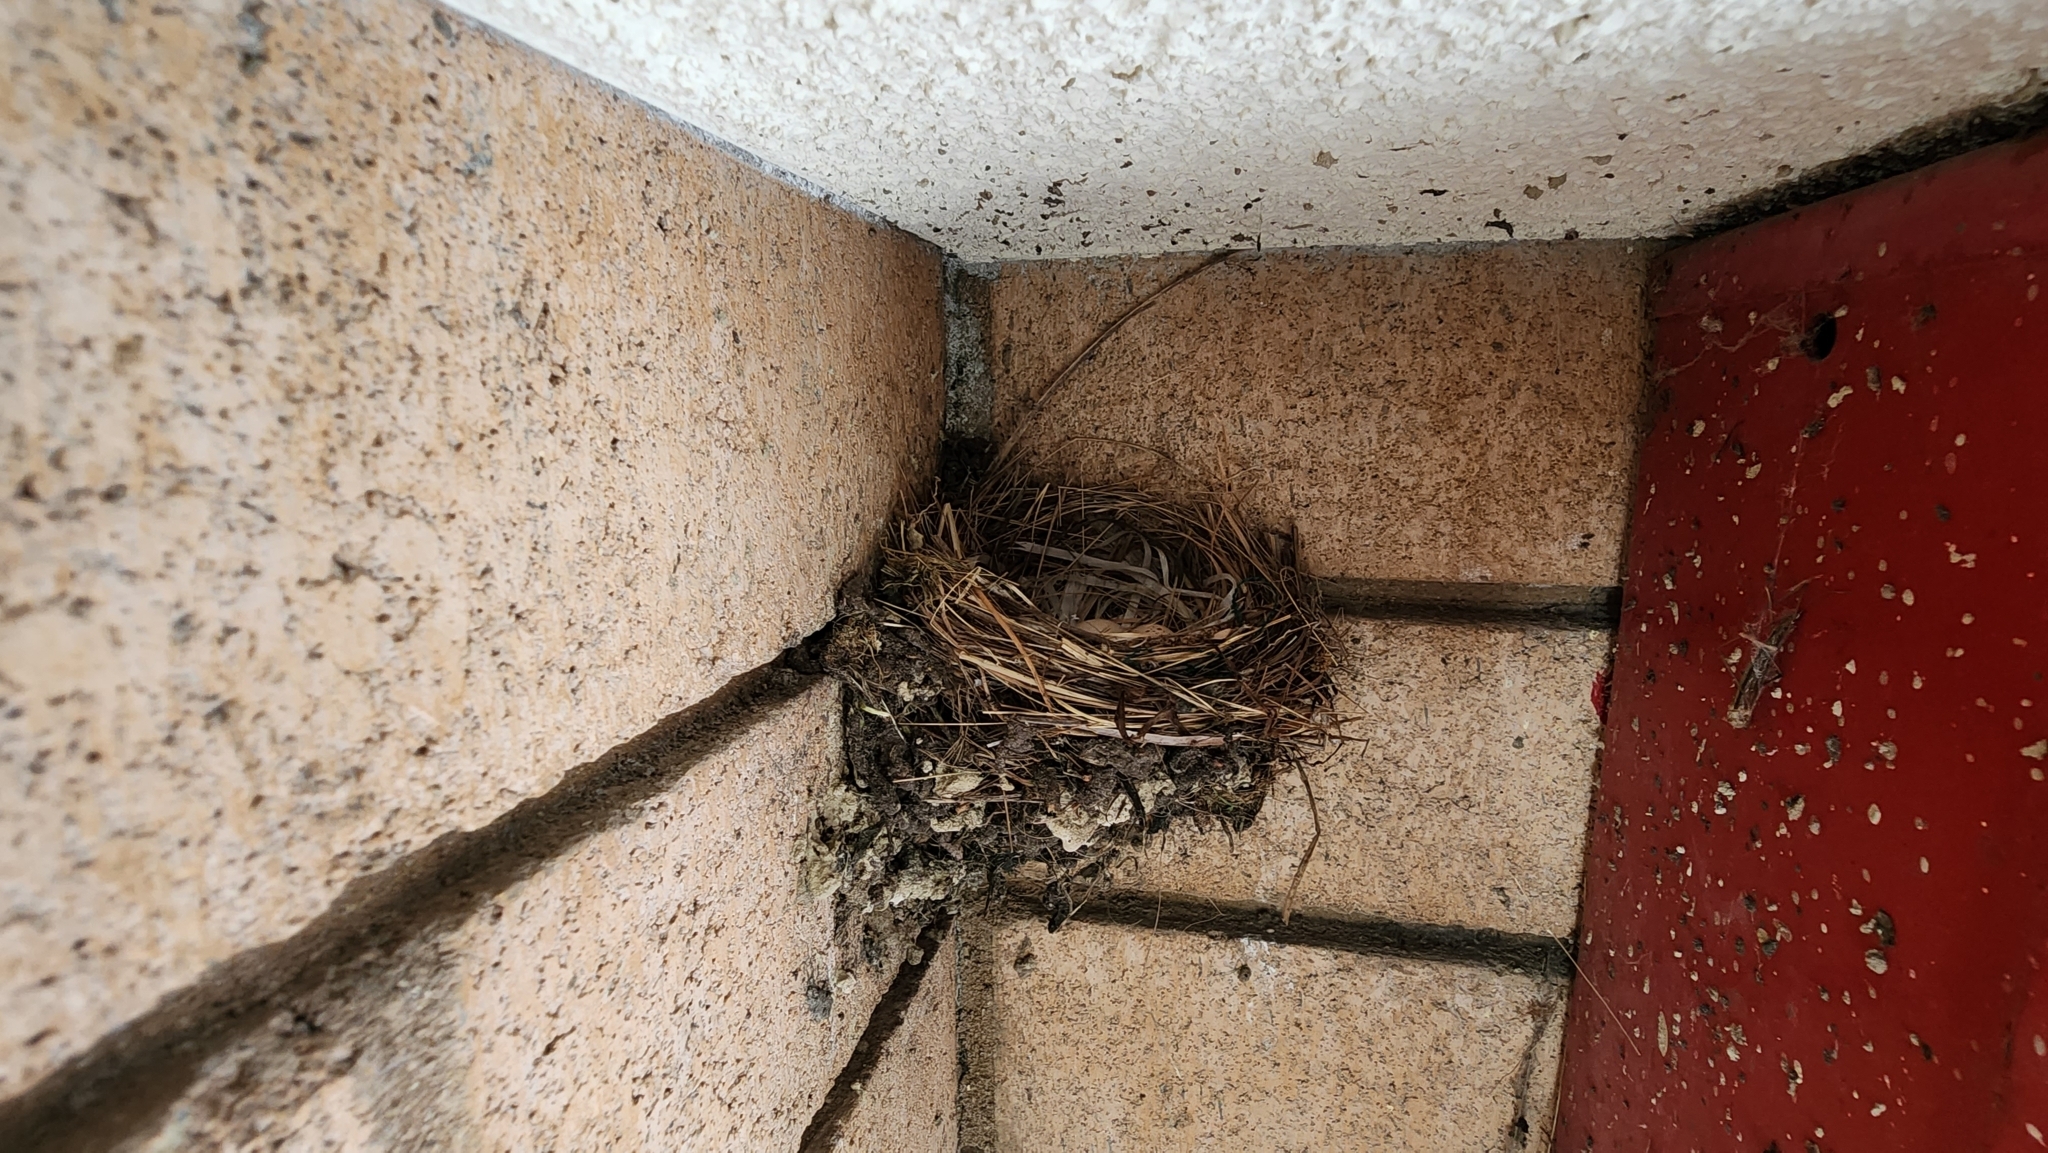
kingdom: Animalia
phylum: Chordata
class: Aves
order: Passeriformes
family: Tyrannidae
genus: Sayornis
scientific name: Sayornis nigricans
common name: Black phoebe
